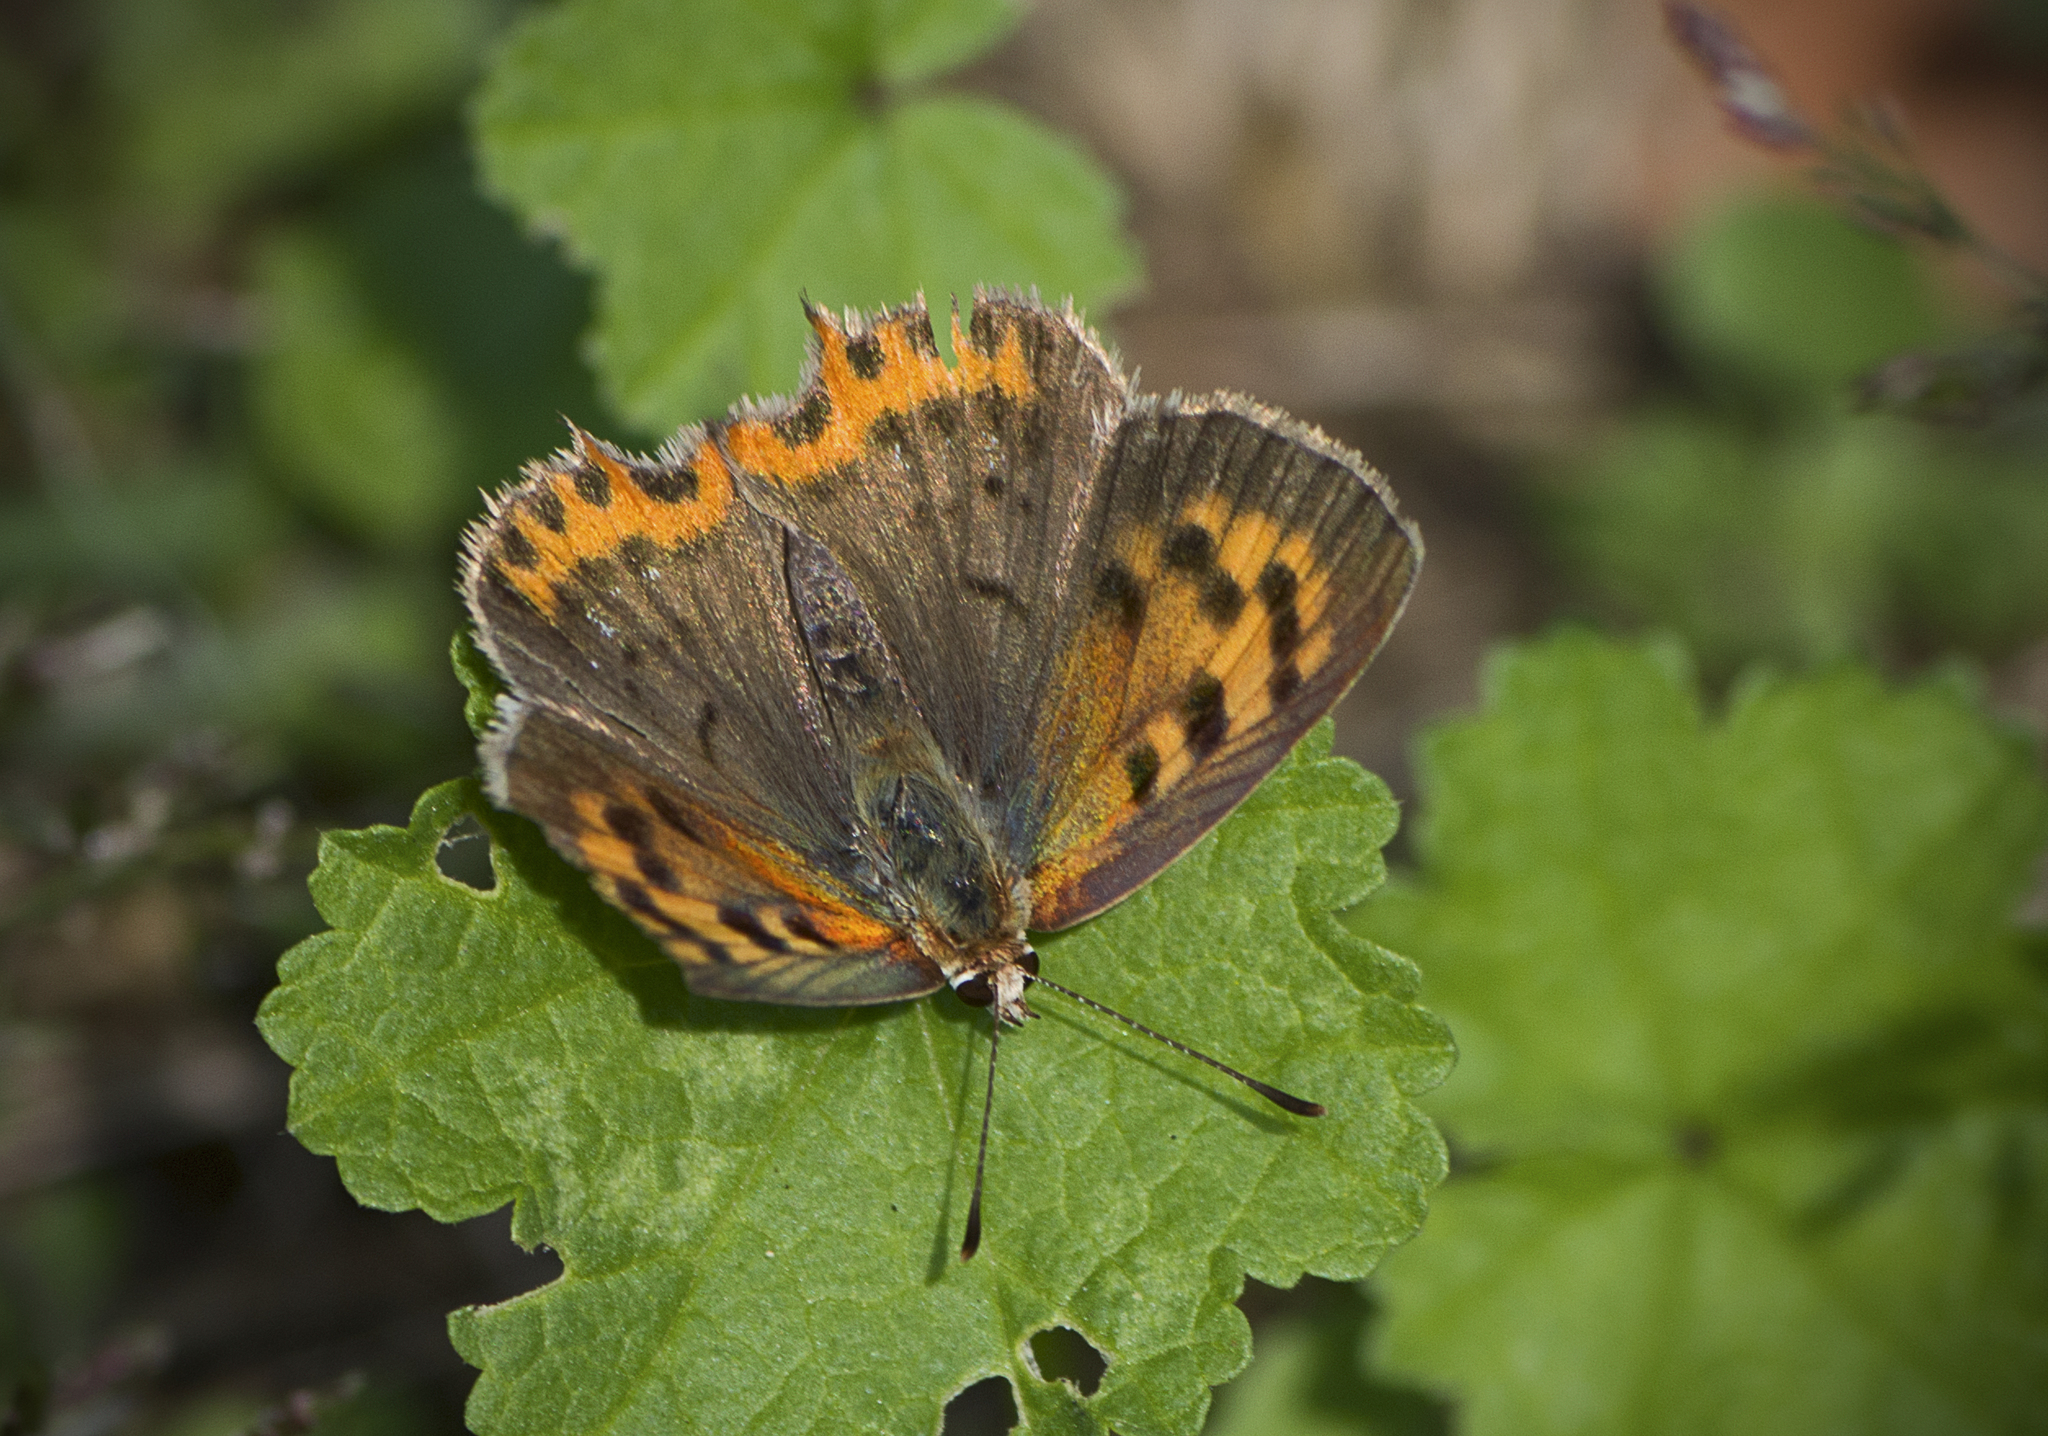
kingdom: Animalia
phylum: Arthropoda
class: Insecta
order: Lepidoptera
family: Lycaenidae
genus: Lycaena
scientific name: Lycaena phlaeas
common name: Small copper
